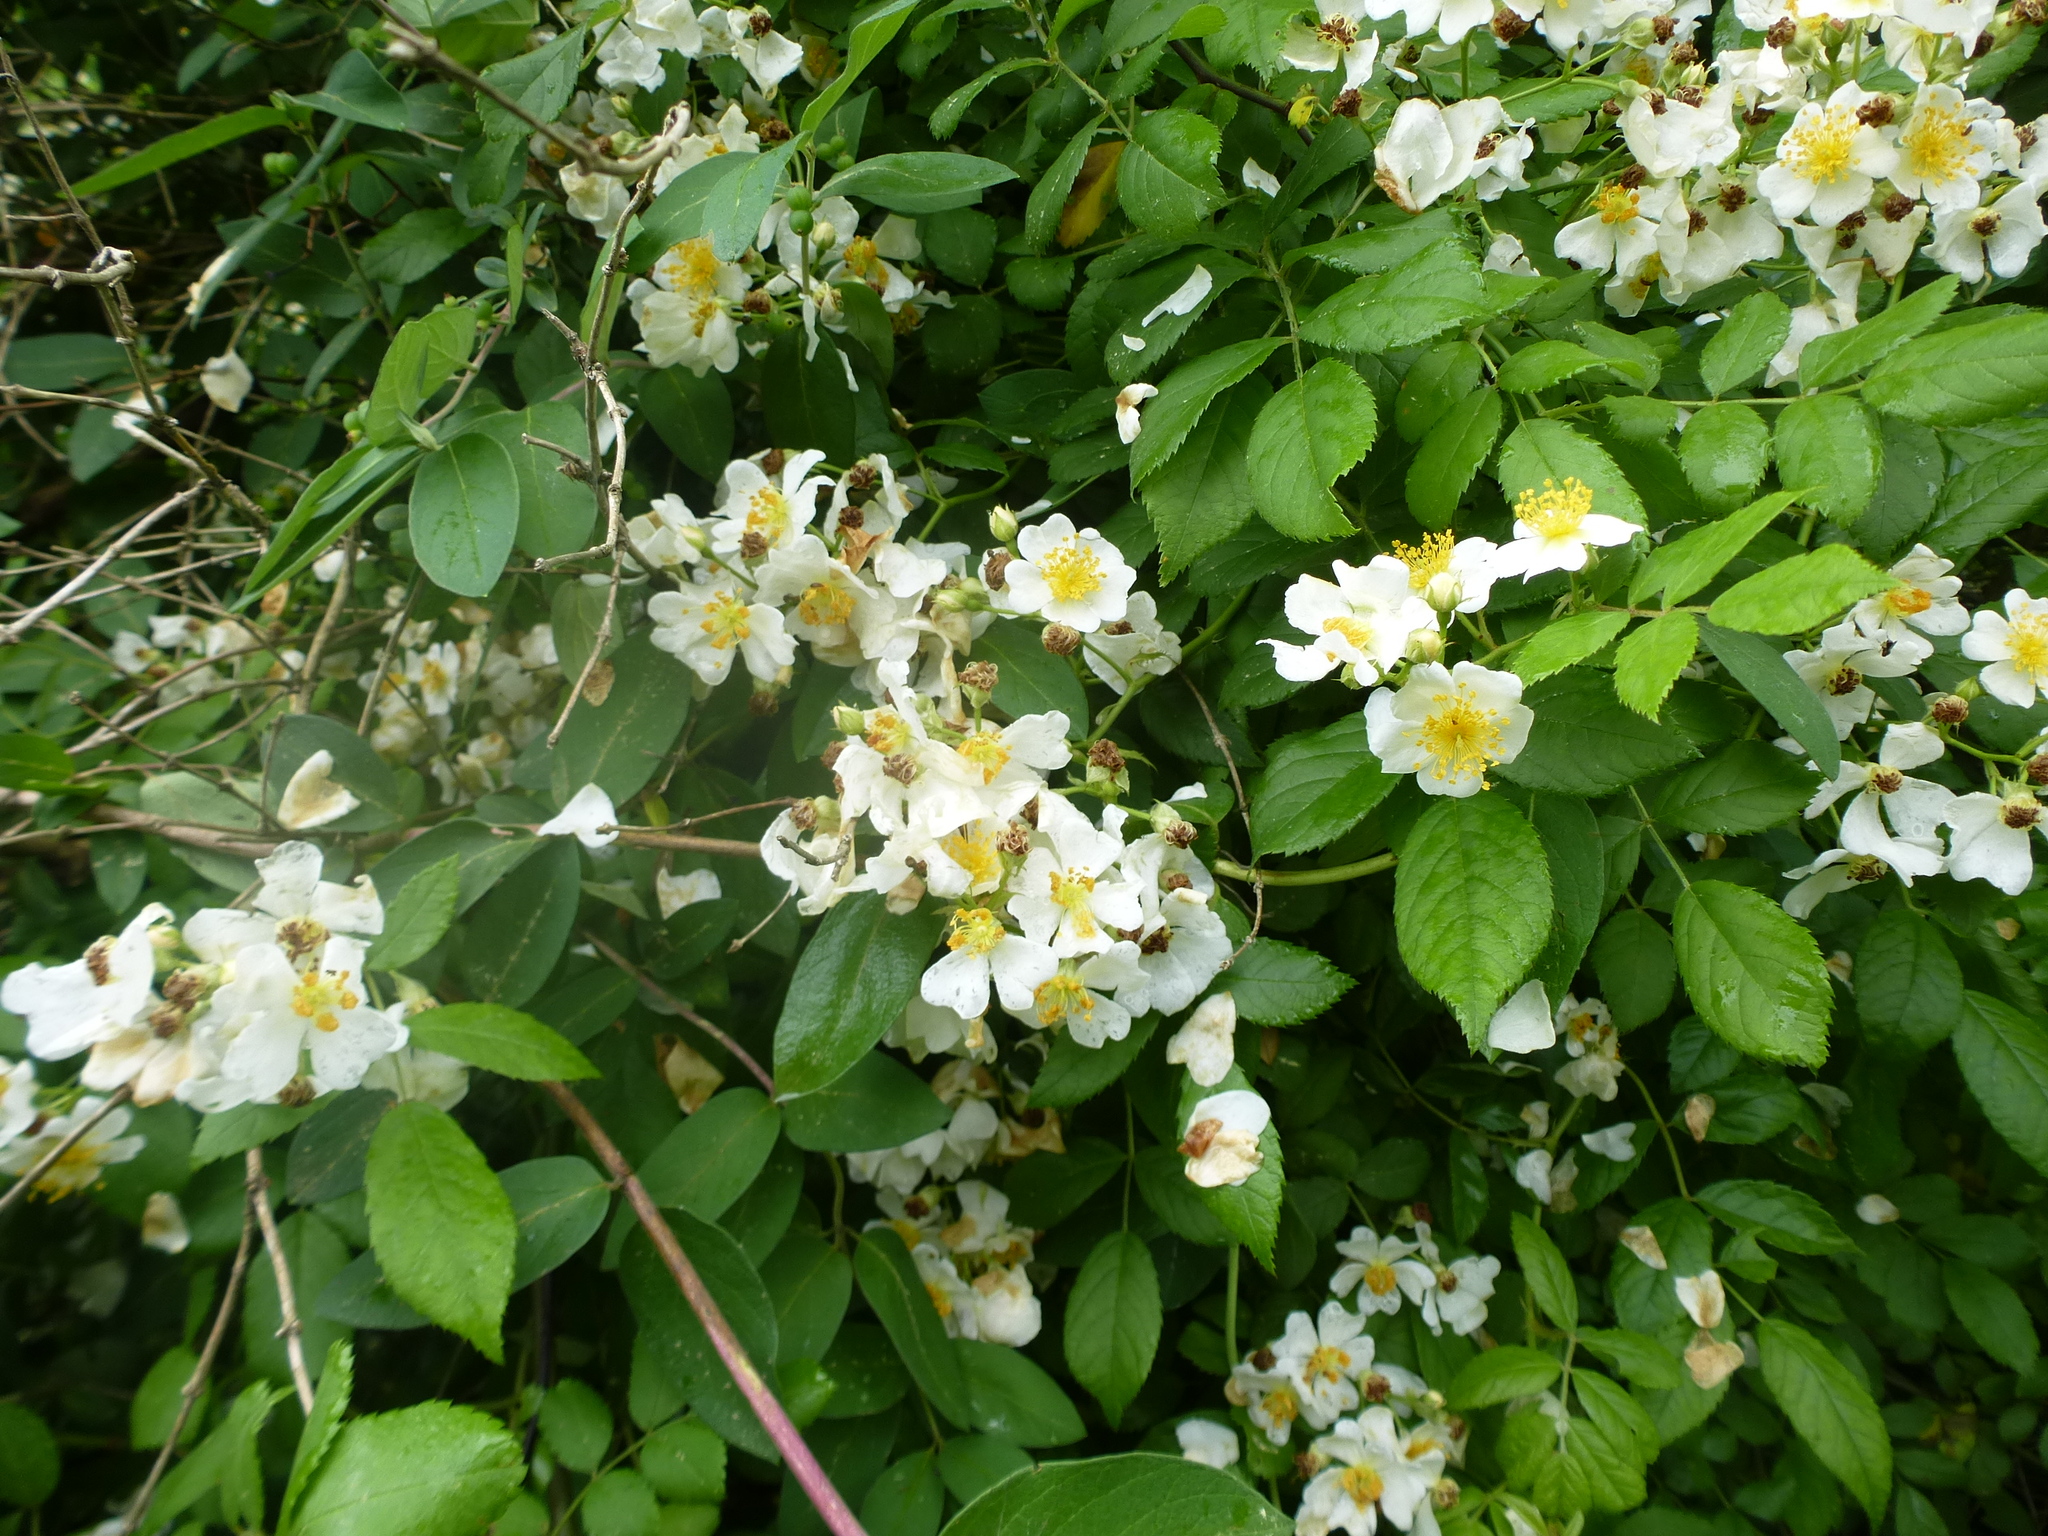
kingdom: Plantae
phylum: Tracheophyta
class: Magnoliopsida
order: Rosales
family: Rosaceae
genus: Rosa
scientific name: Rosa multiflora
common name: Multiflora rose
